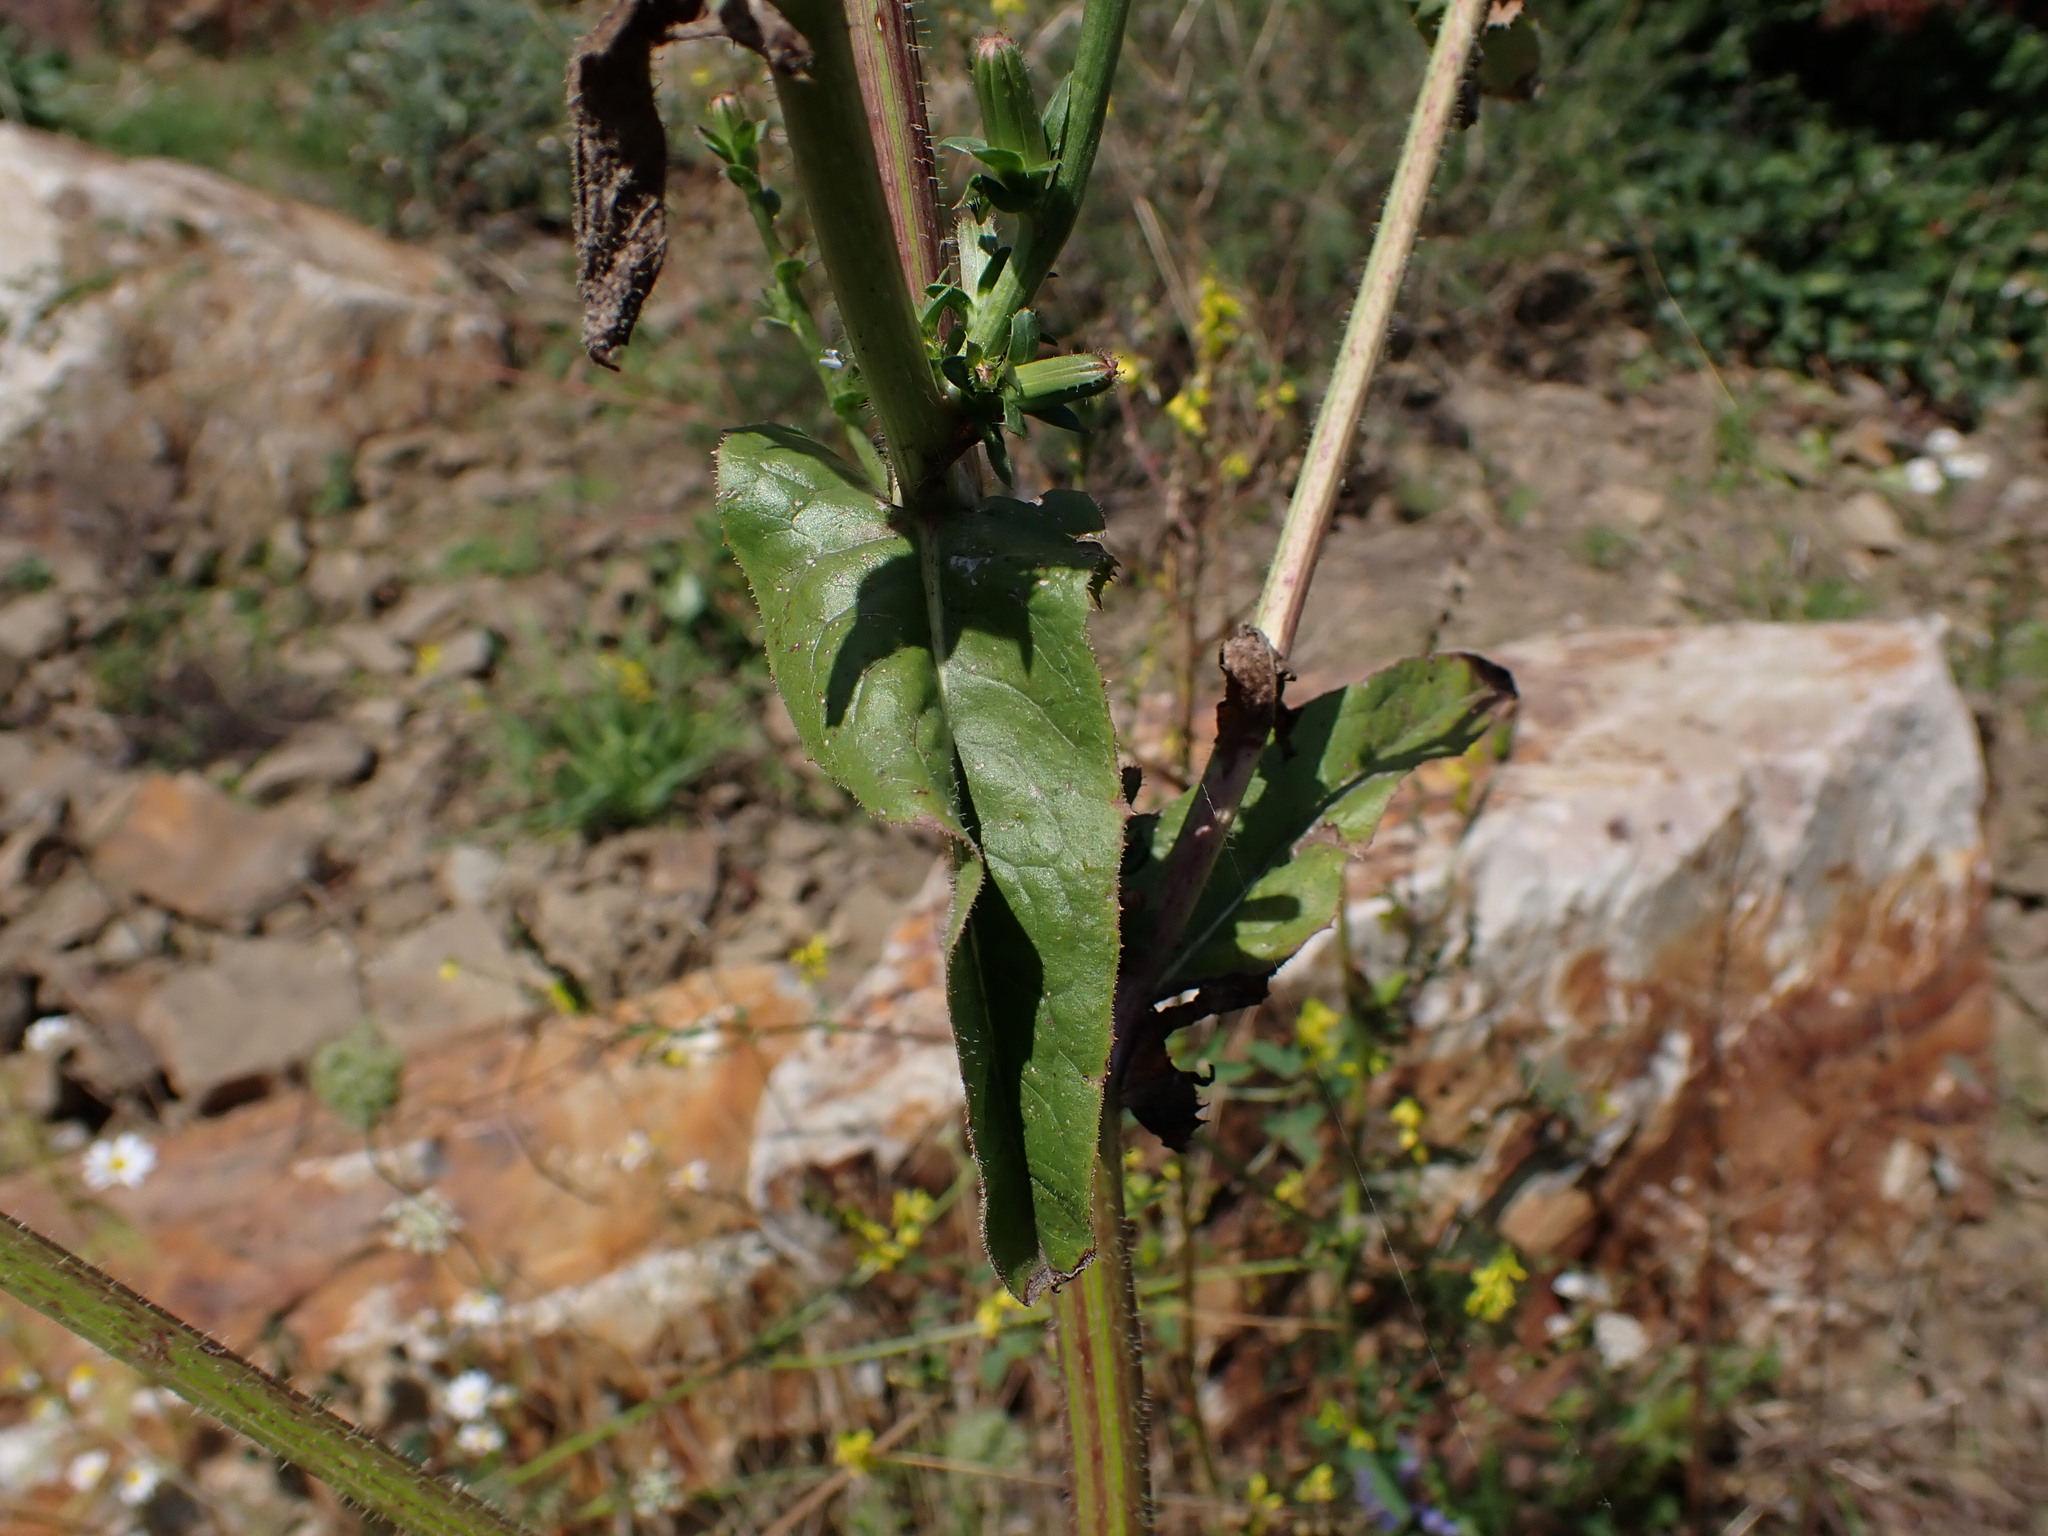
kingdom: Plantae
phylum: Tracheophyta
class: Magnoliopsida
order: Asterales
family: Asteraceae
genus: Cichorium
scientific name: Cichorium intybus
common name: Chicory
